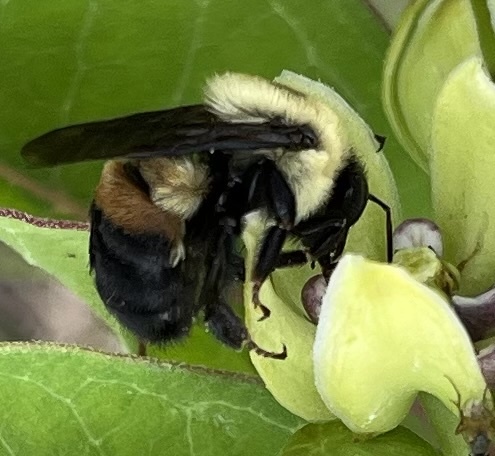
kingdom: Animalia
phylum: Arthropoda
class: Insecta
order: Hymenoptera
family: Apidae
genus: Bombus
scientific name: Bombus griseocollis
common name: Brown-belted bumble bee
